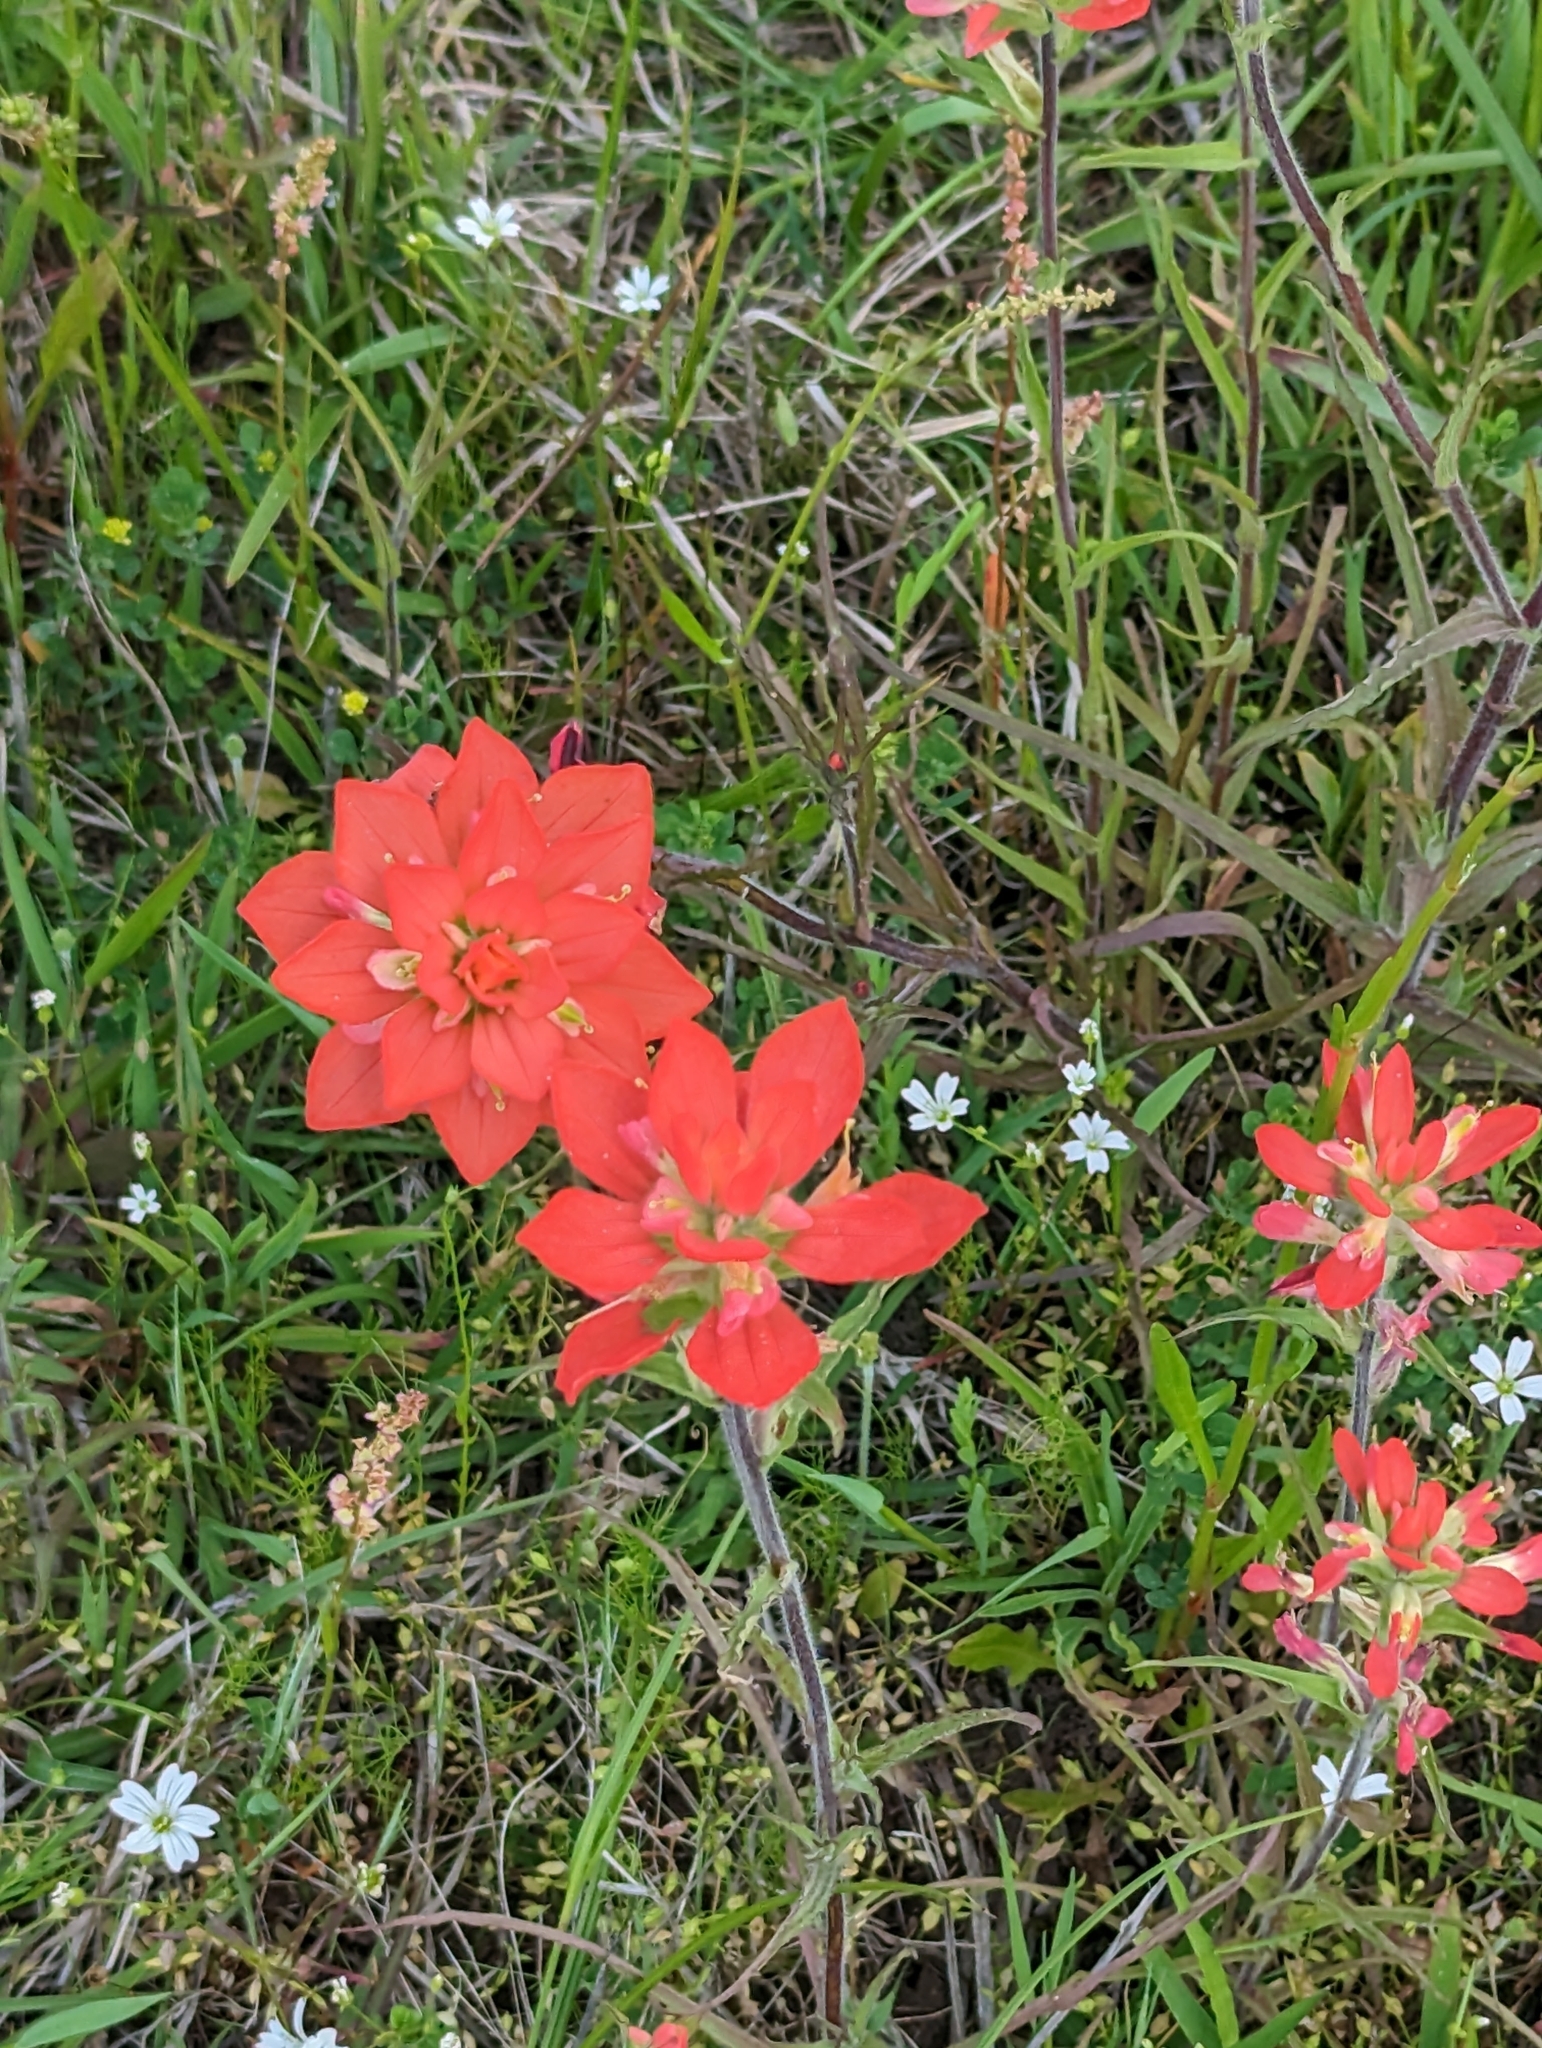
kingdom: Plantae
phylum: Tracheophyta
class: Magnoliopsida
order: Lamiales
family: Orobanchaceae
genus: Castilleja
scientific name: Castilleja indivisa
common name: Texas paintbrush
